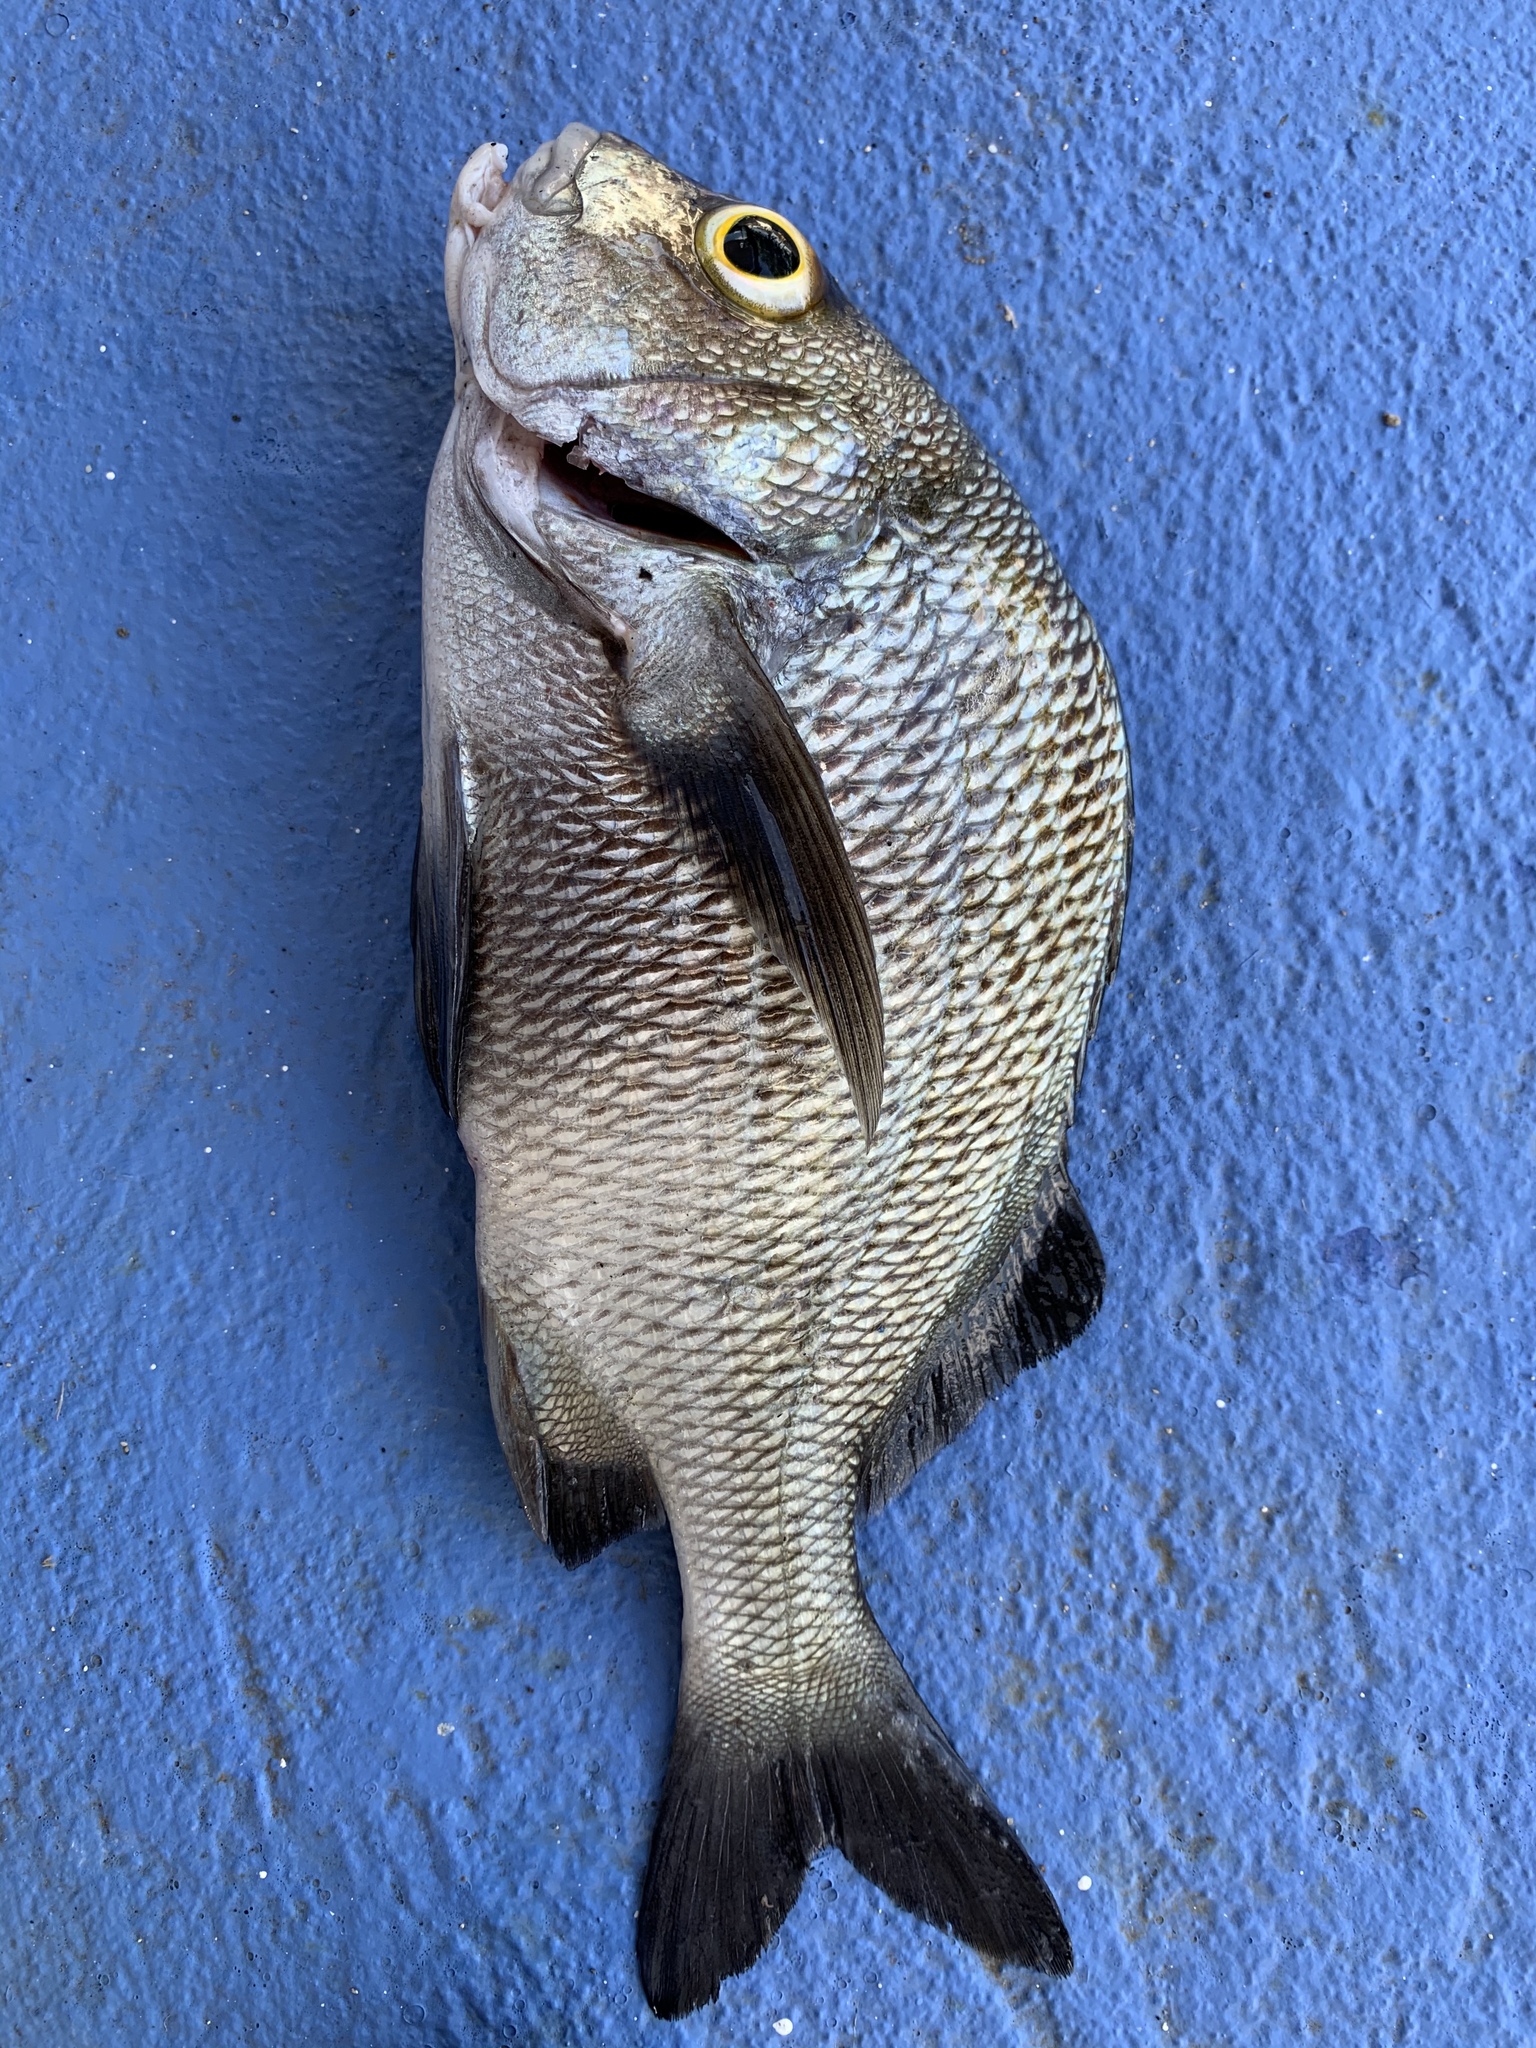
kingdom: Animalia
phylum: Chordata
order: Perciformes
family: Haemulidae
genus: Anisotremus
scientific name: Anisotremus surinamensis
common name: Black margate
